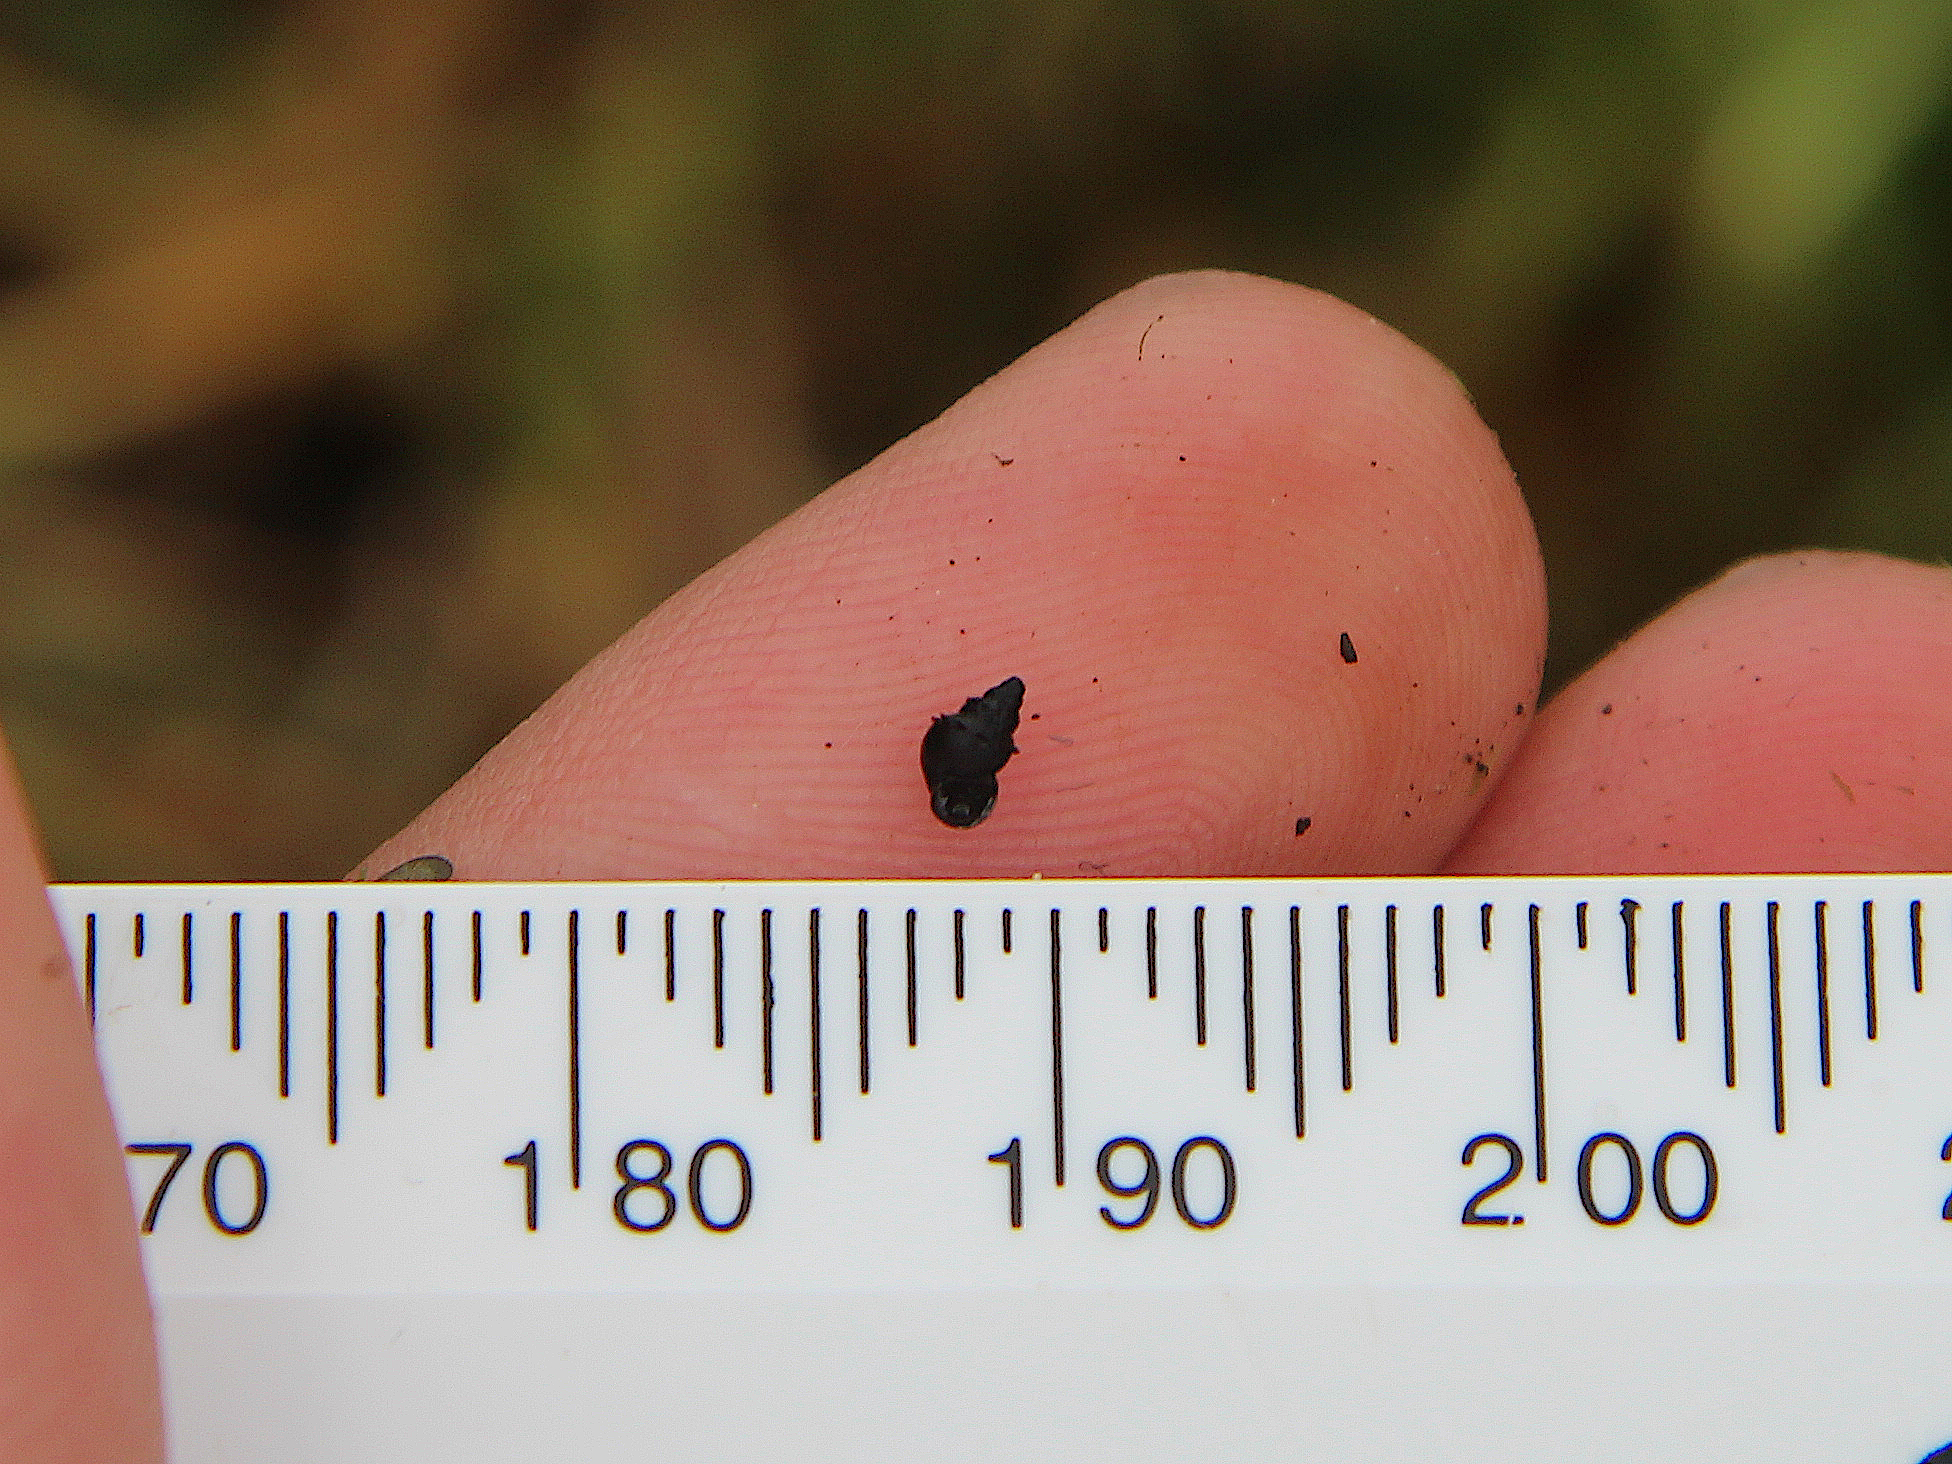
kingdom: Animalia
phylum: Mollusca
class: Gastropoda
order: Littorinimorpha
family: Tateidae
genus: Potamopyrgus
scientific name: Potamopyrgus antipodarum
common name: Jenkins' spire snail
